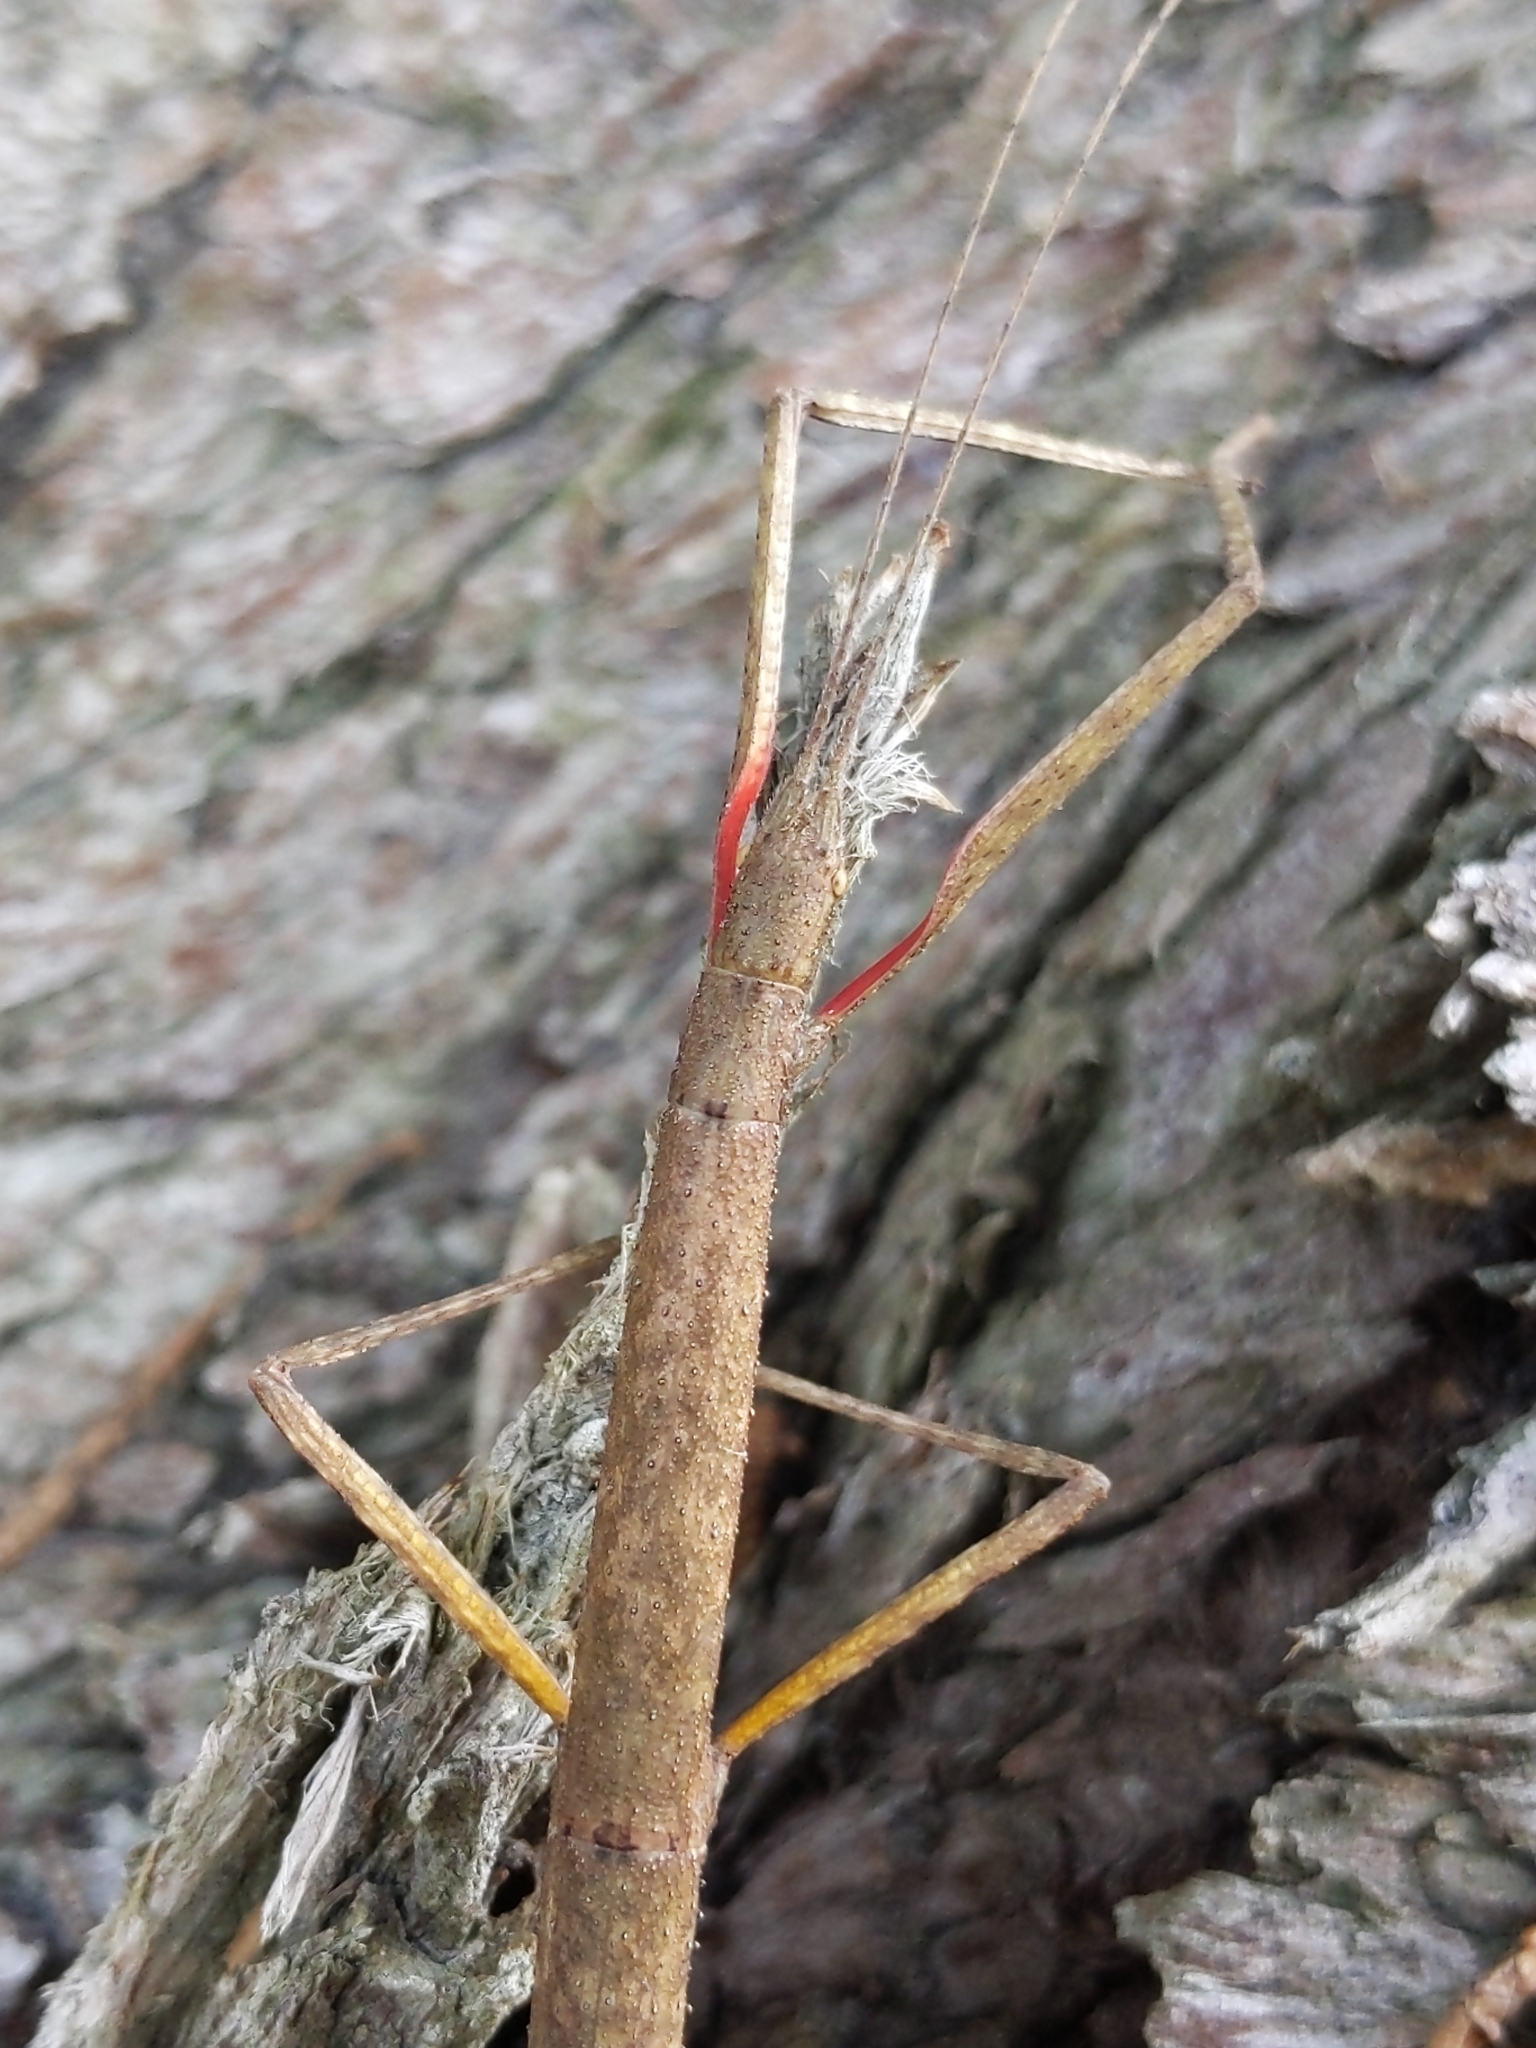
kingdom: Animalia
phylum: Arthropoda
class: Insecta
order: Phasmida
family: Lonchodidae
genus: Carausius
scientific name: Carausius morosus
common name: Indian stick insect
